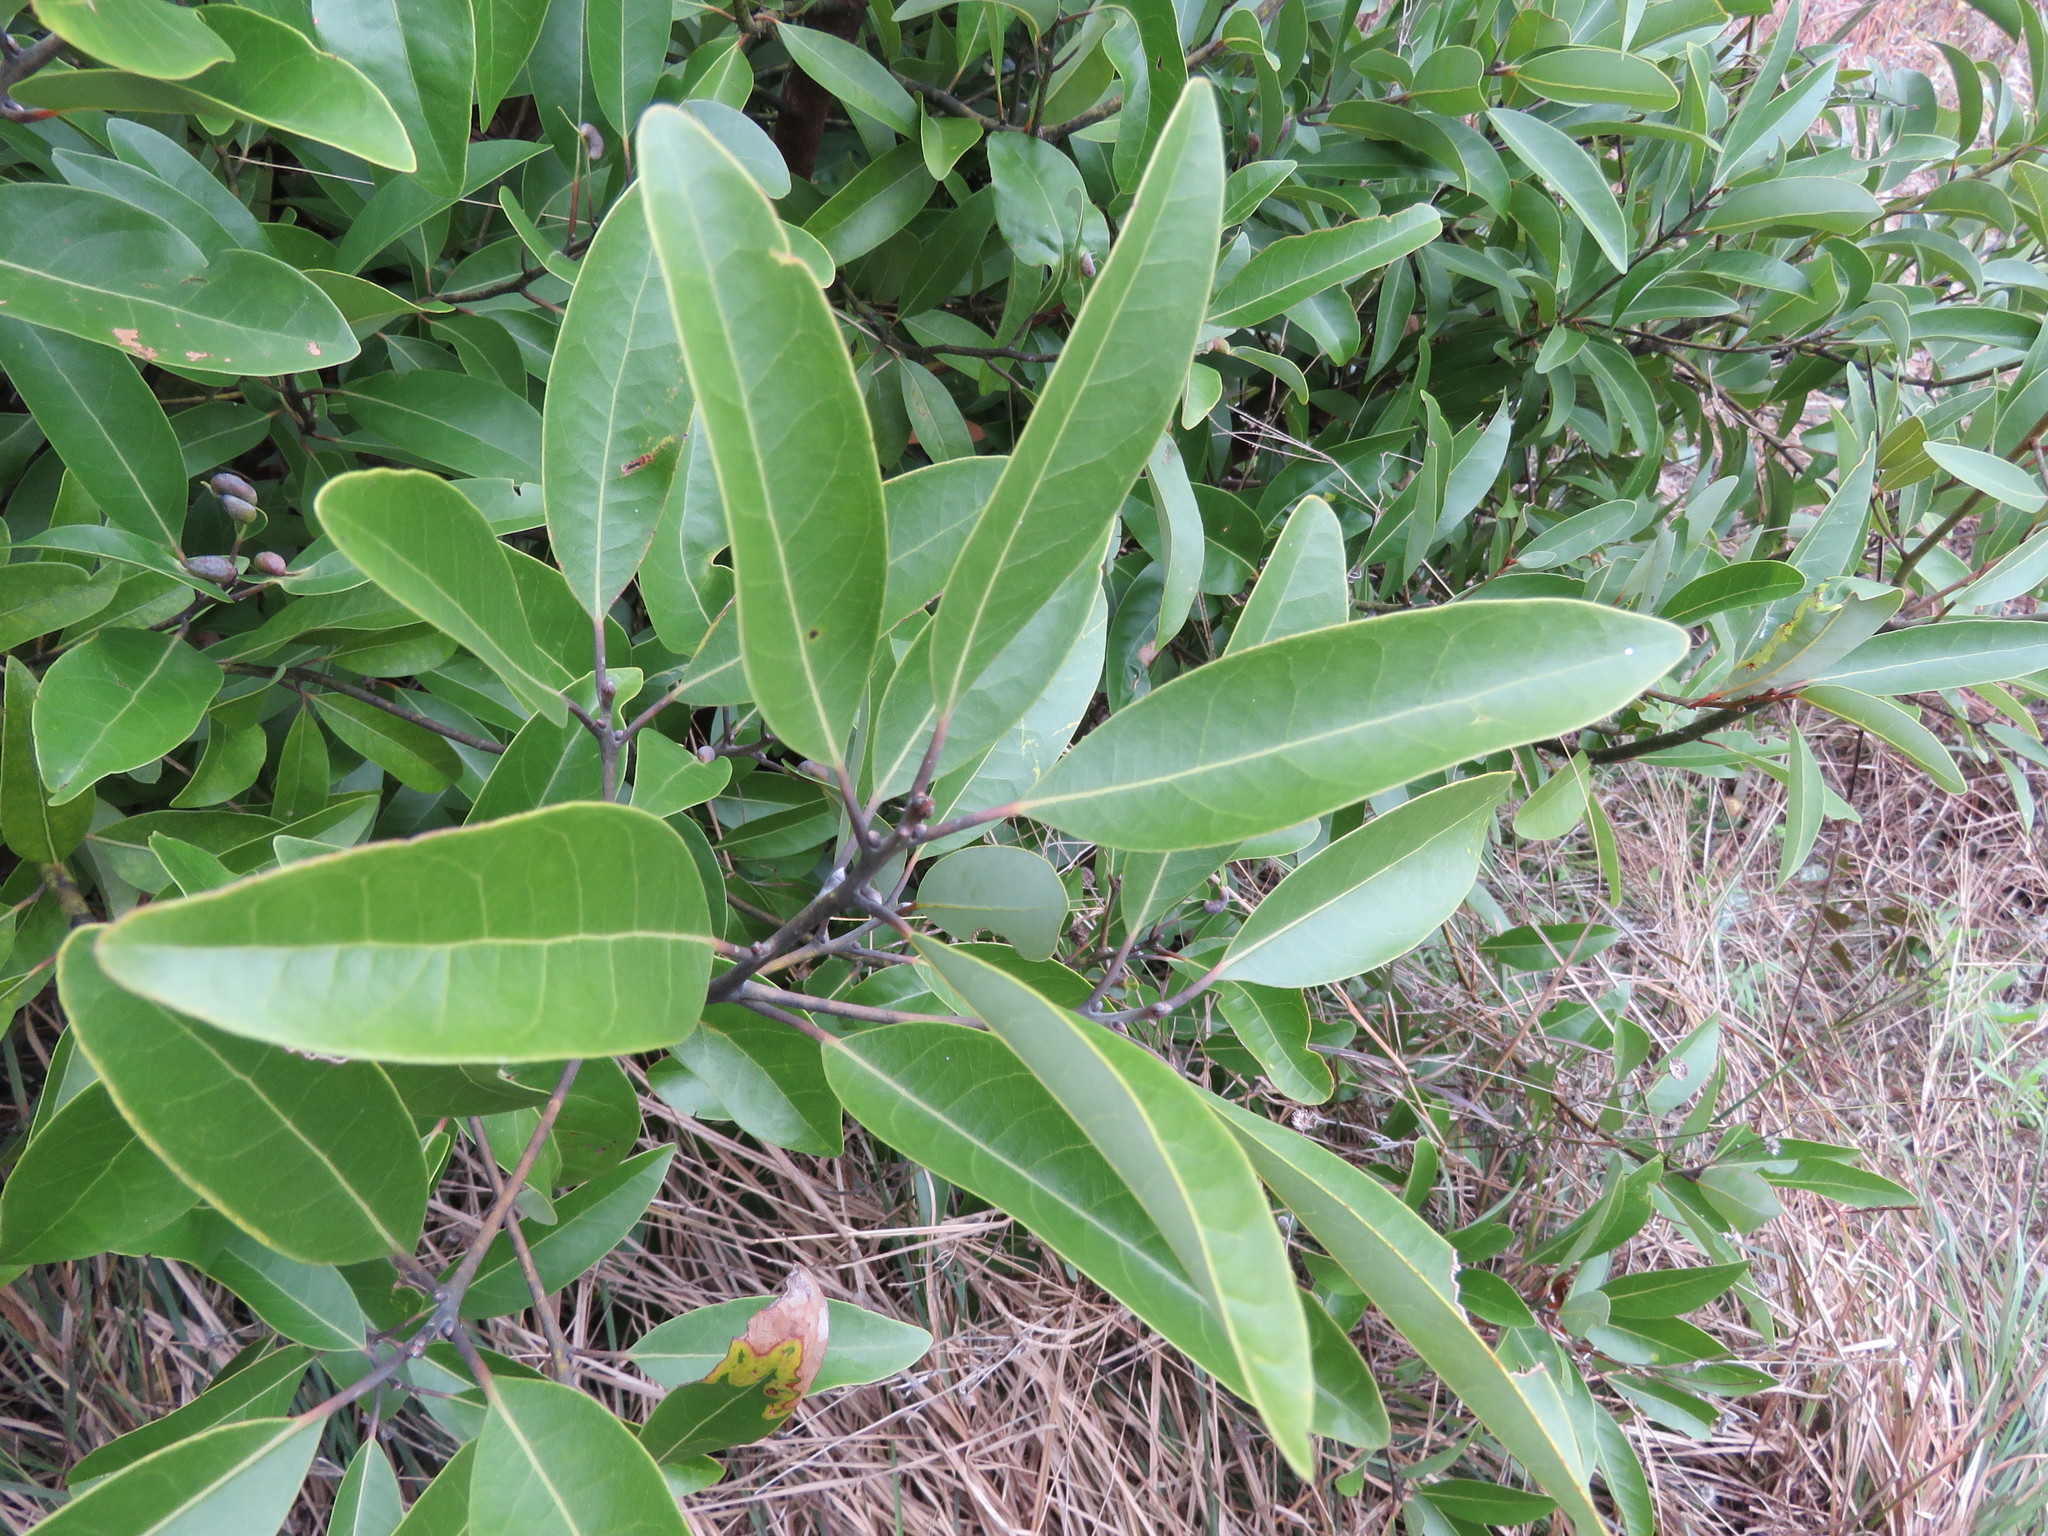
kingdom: Plantae
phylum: Tracheophyta
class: Magnoliopsida
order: Laurales
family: Lauraceae
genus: Persea
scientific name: Persea borbonia
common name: Redbay
